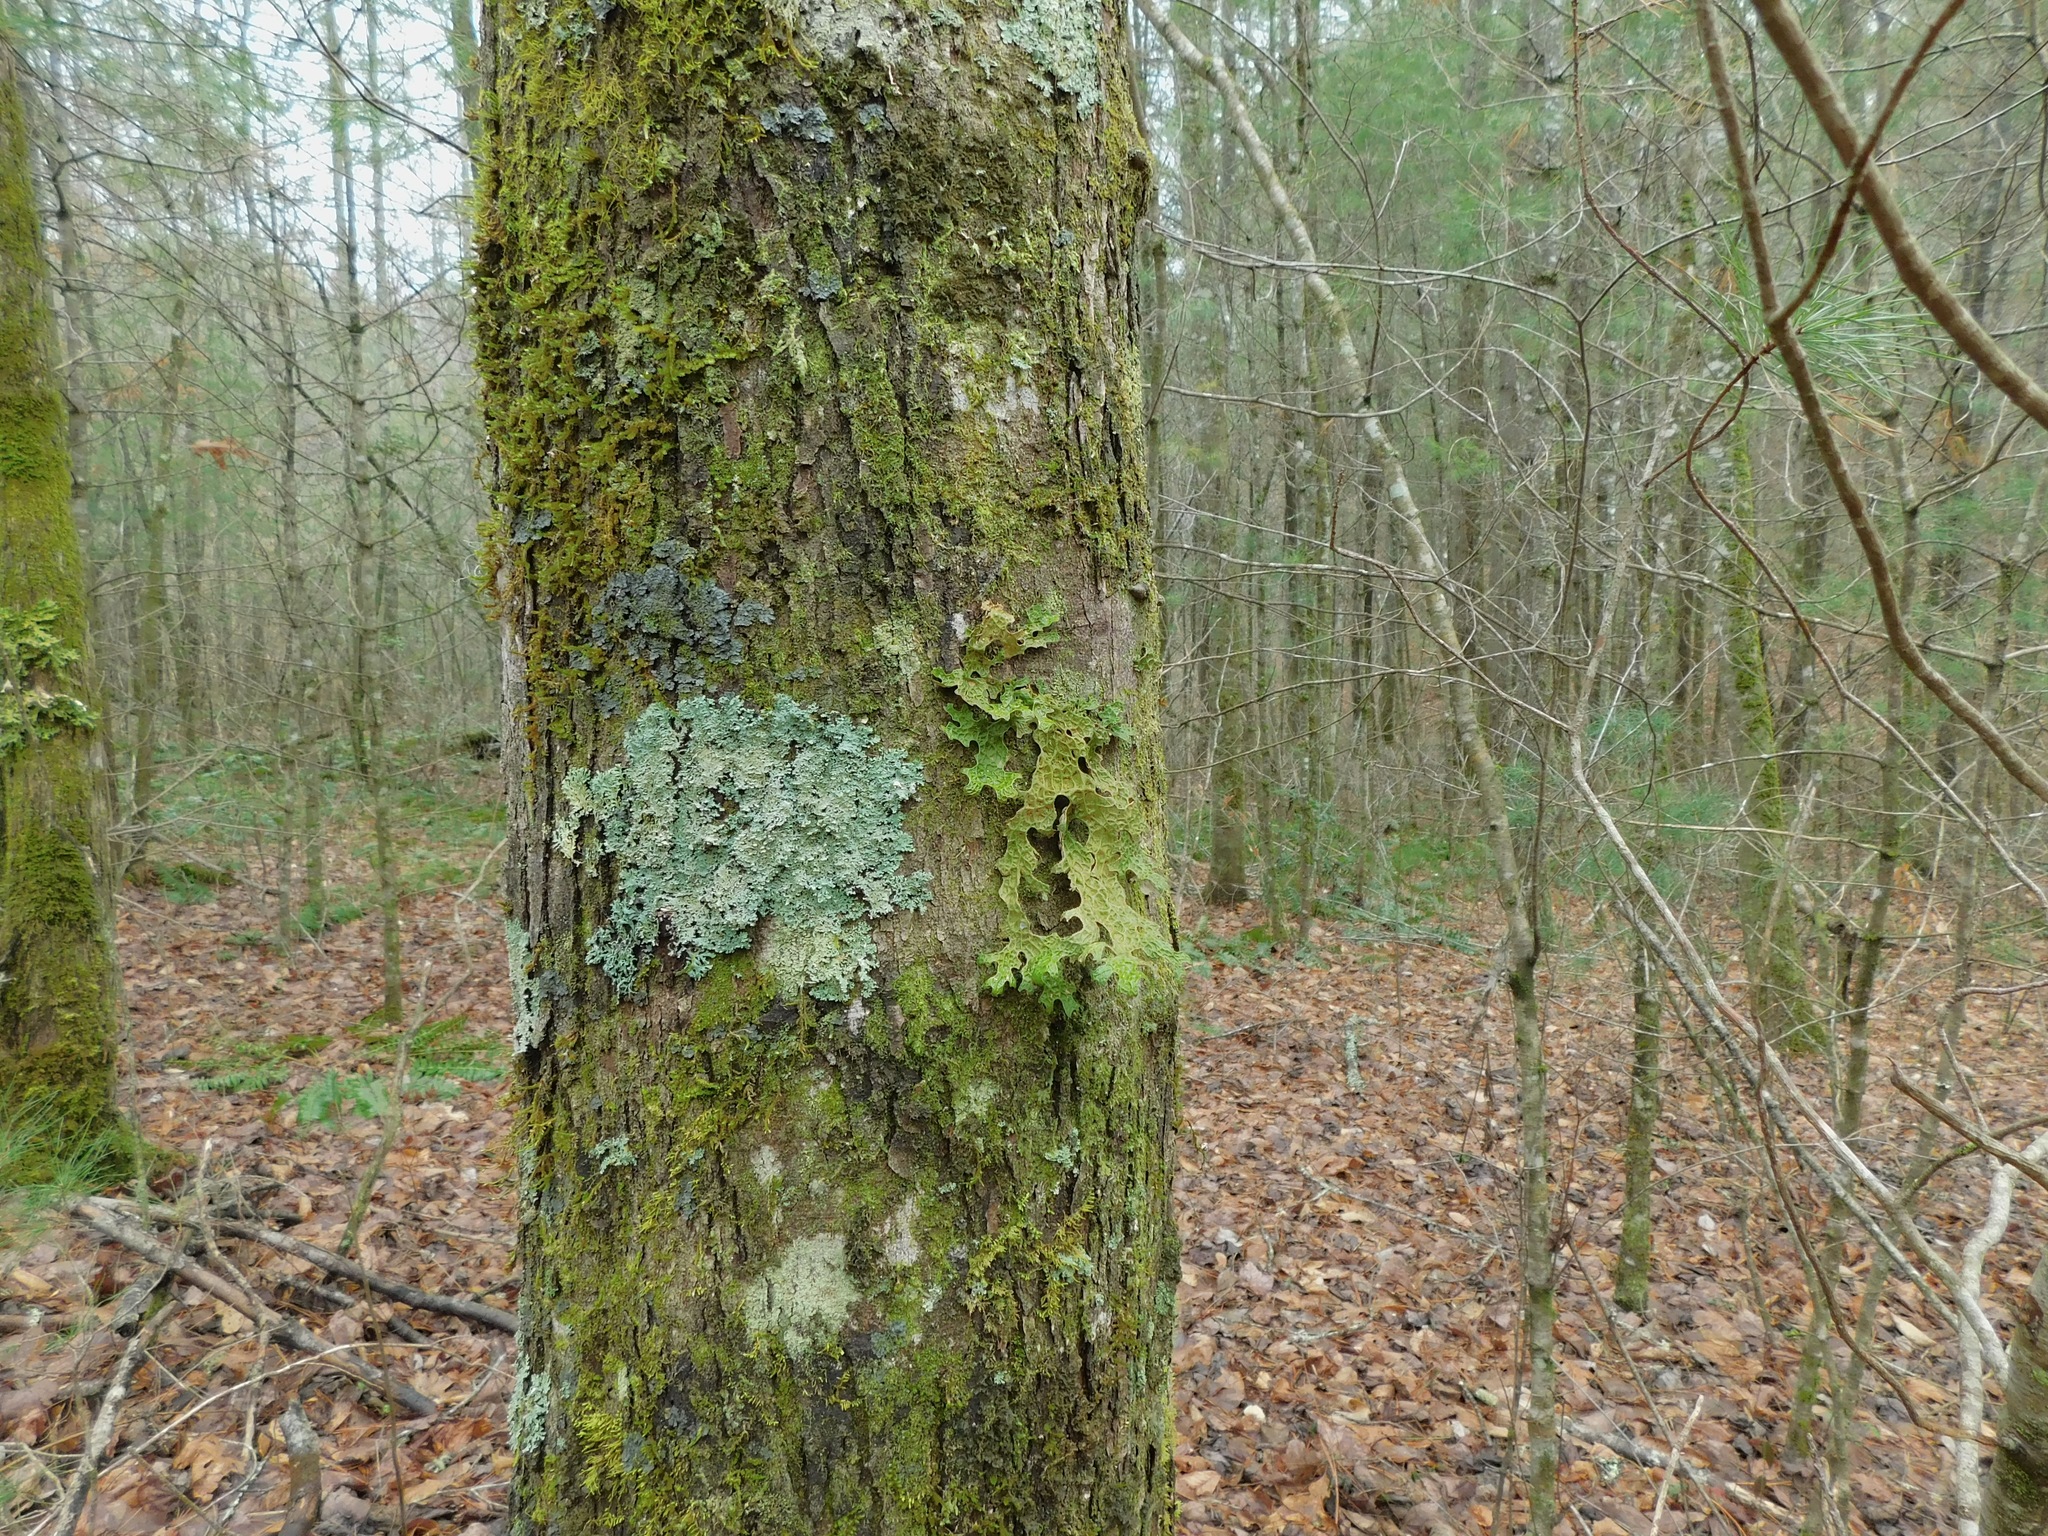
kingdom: Fungi
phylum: Ascomycota
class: Lecanoromycetes
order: Peltigerales
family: Pannariaceae
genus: Pannaria
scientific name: Pannaria conoplea
